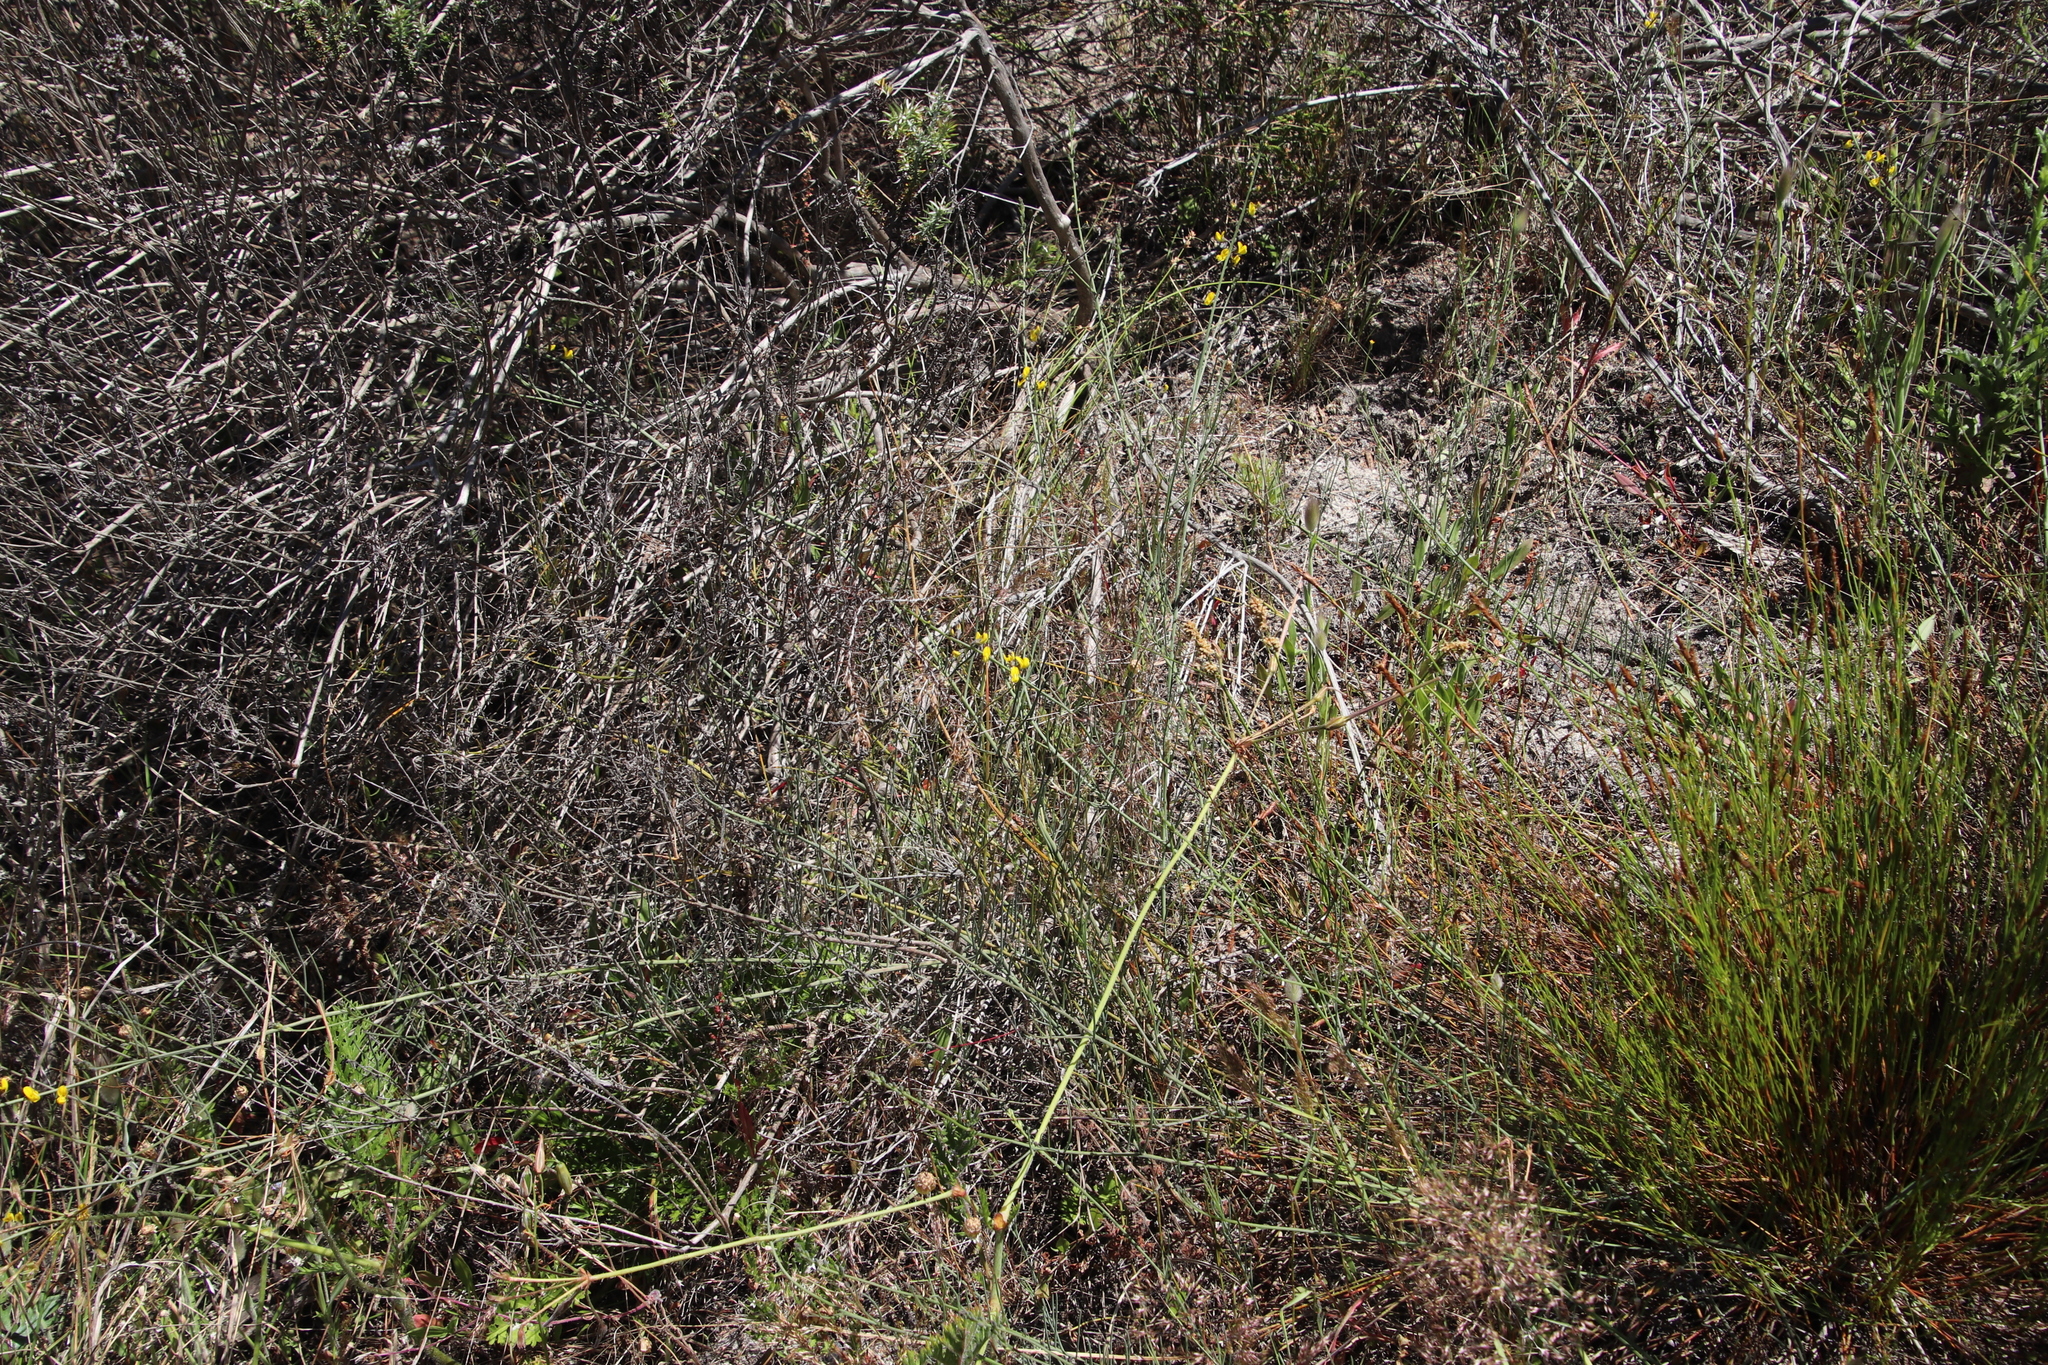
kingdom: Plantae
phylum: Tracheophyta
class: Magnoliopsida
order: Fabales
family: Fabaceae
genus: Lebeckia
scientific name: Lebeckia contaminata
